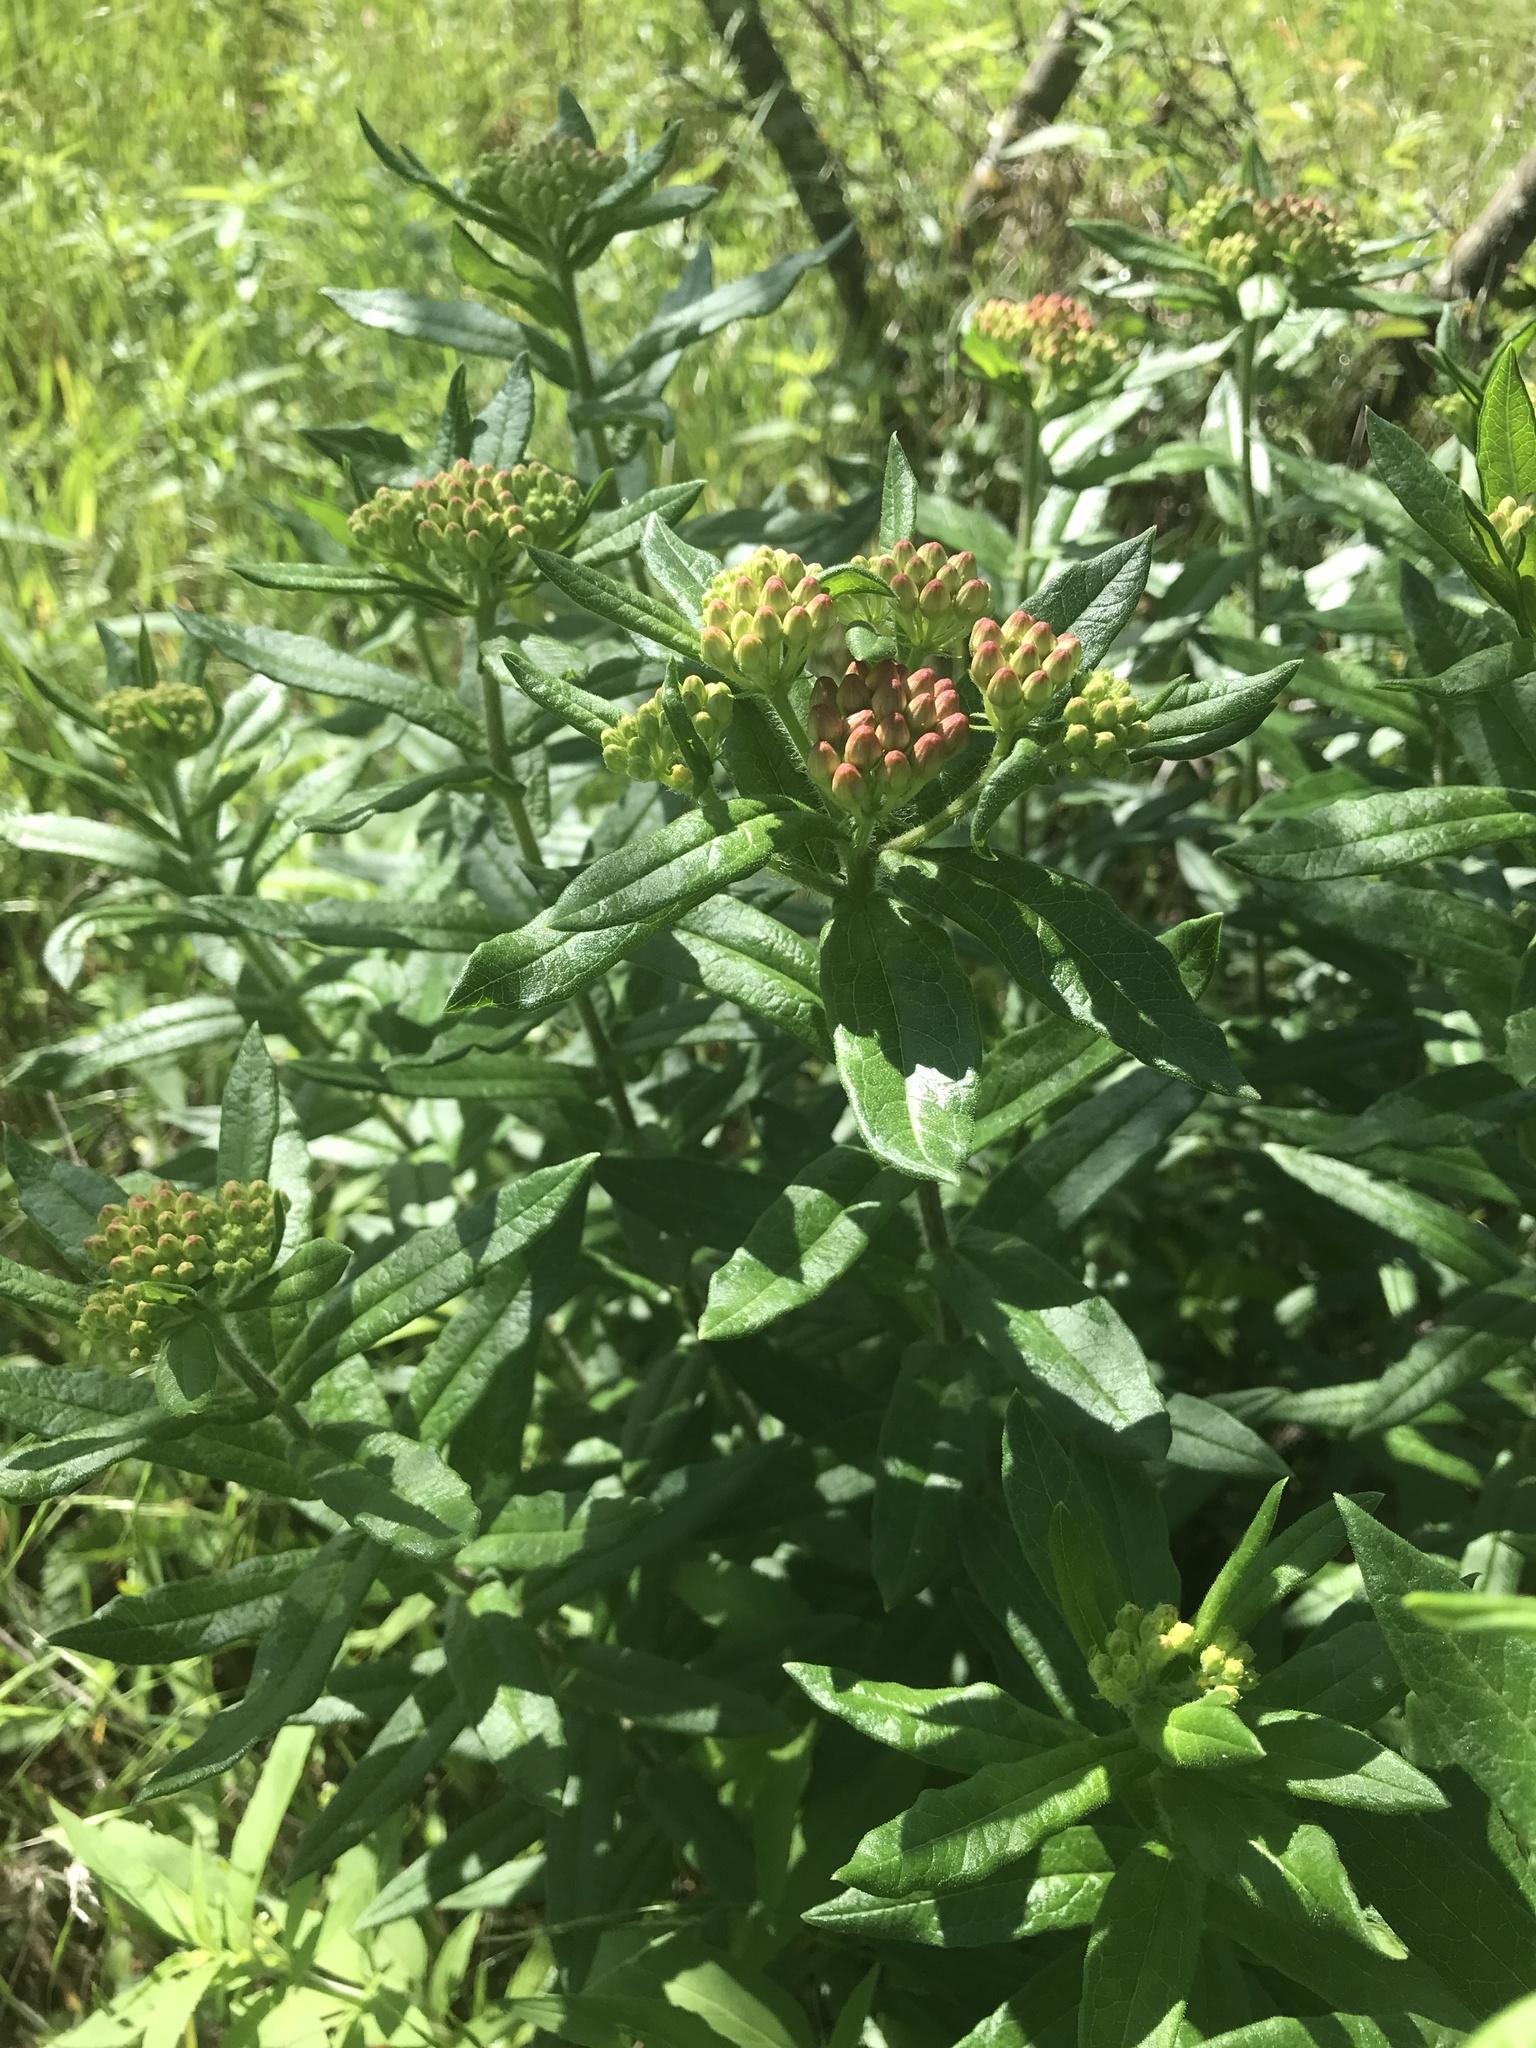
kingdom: Plantae
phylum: Tracheophyta
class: Magnoliopsida
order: Gentianales
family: Apocynaceae
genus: Asclepias
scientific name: Asclepias tuberosa
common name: Butterfly milkweed
